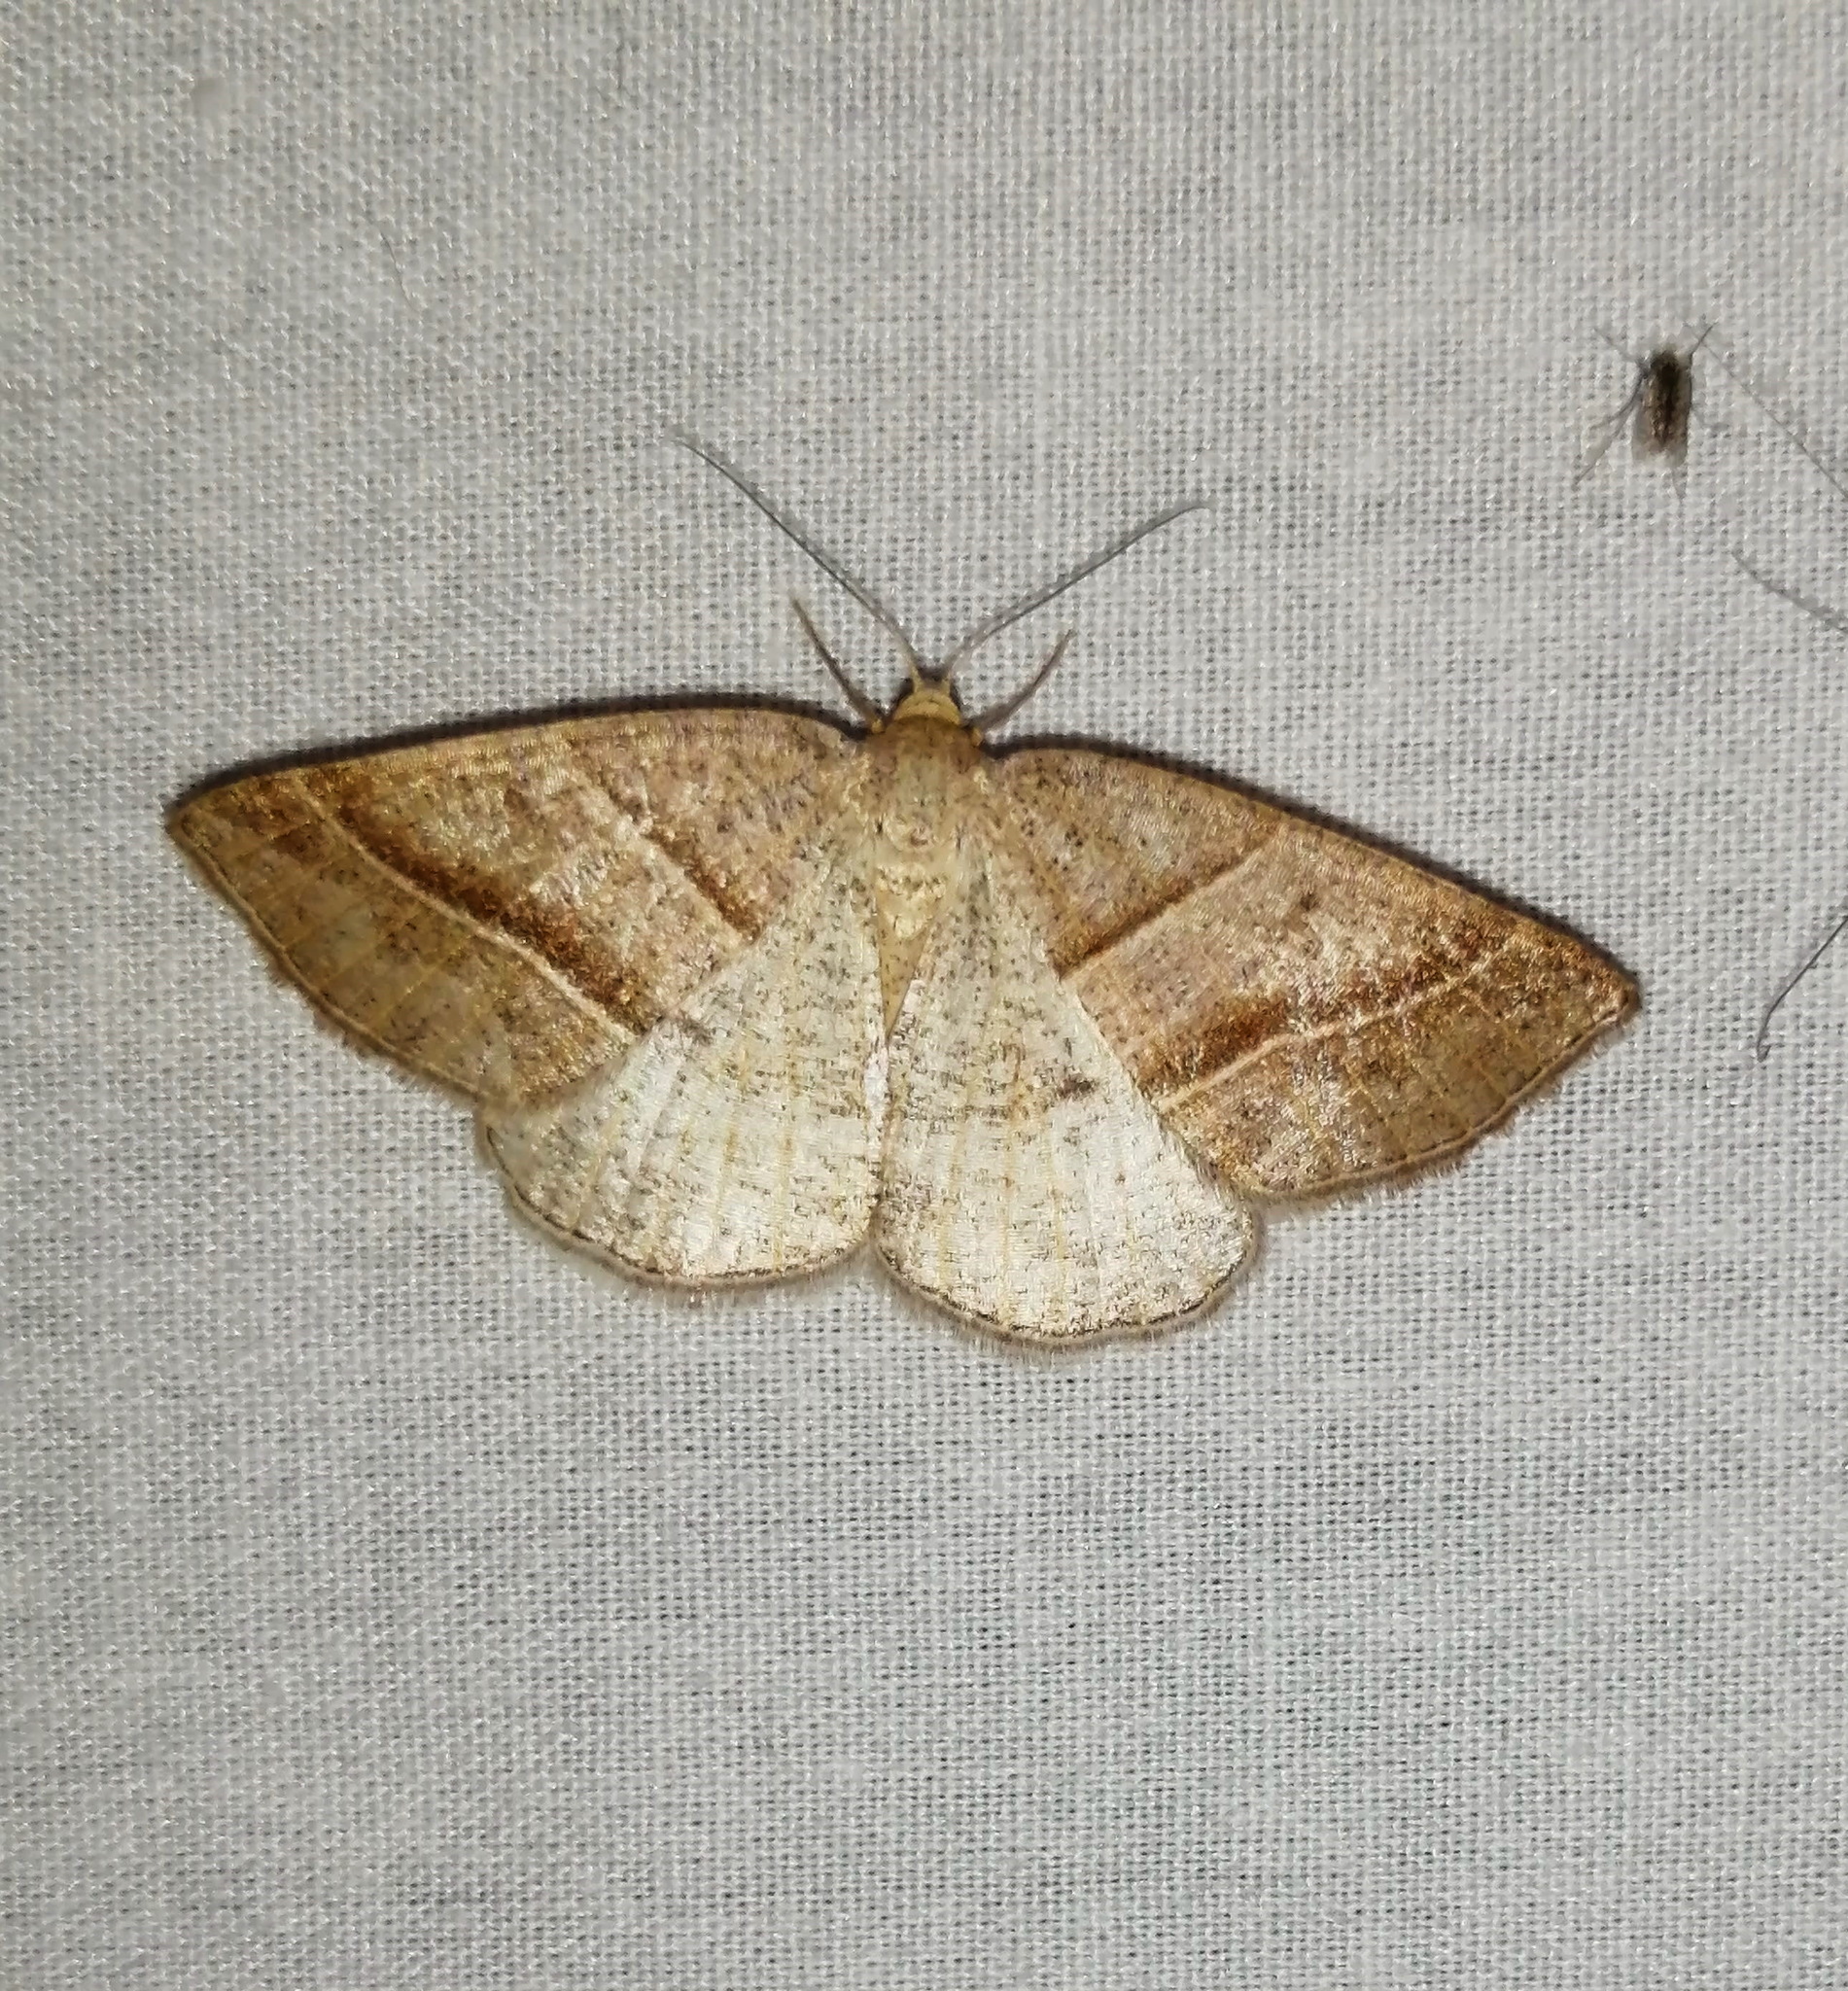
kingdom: Animalia
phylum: Arthropoda
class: Insecta
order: Lepidoptera
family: Pterophoridae
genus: Pterophorus
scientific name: Pterophorus Petrophora subaequaria
